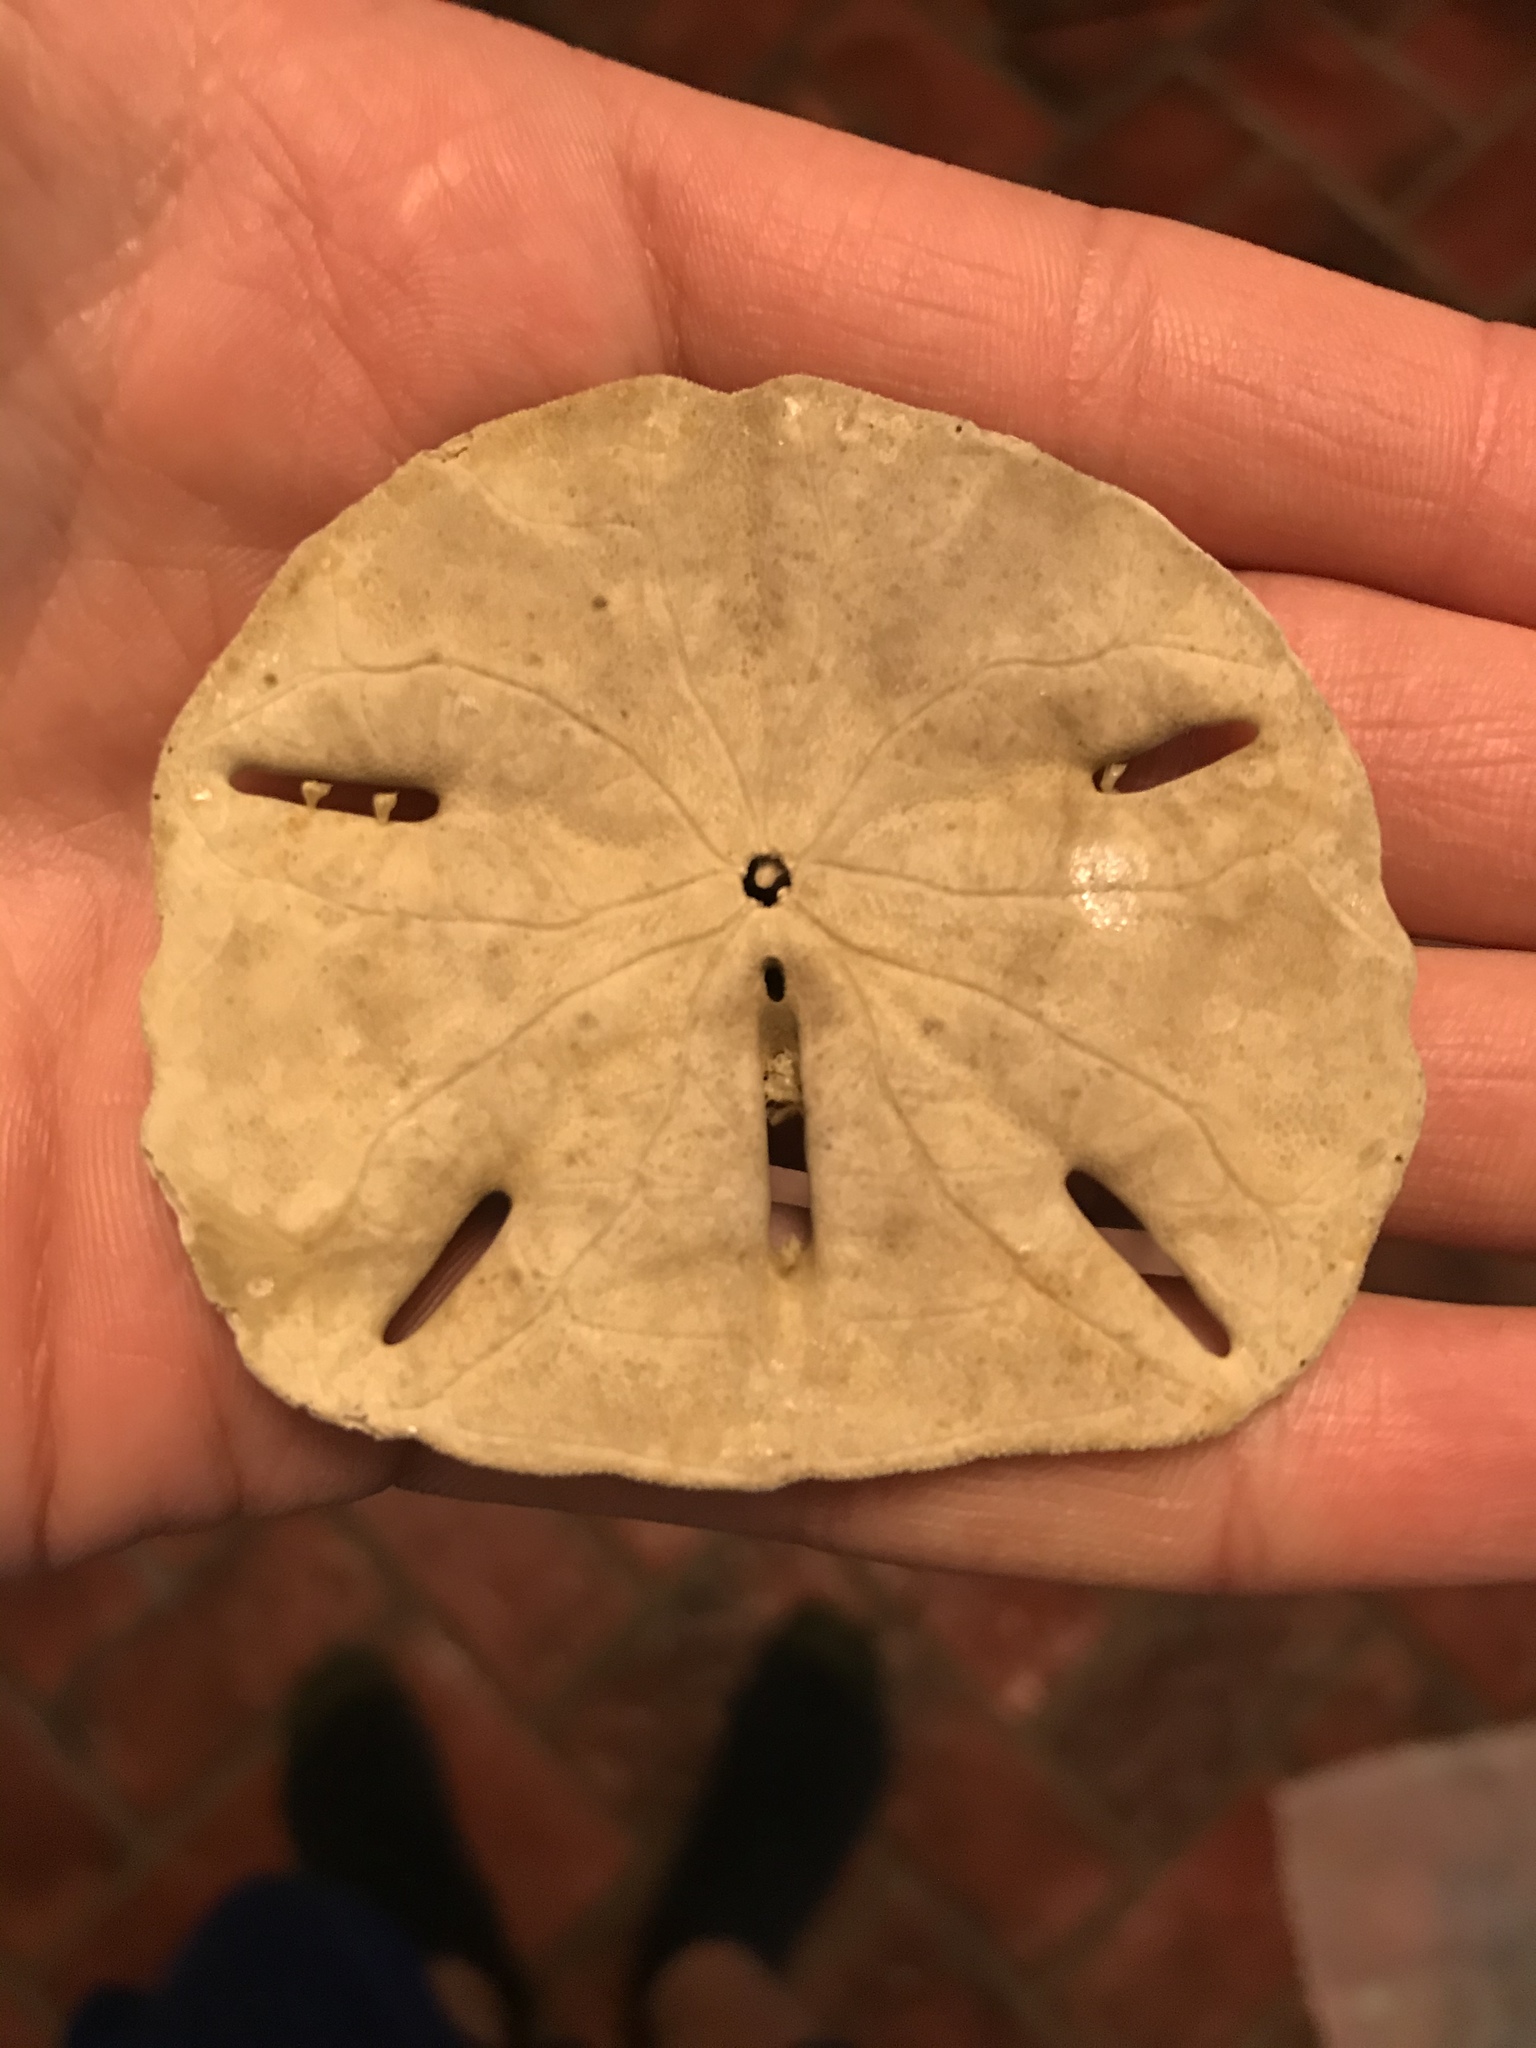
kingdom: Animalia
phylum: Echinodermata
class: Echinoidea
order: Echinolampadacea
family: Mellitidae
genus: Mellita
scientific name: Mellita quinquiesperforata
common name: Sand dollar
